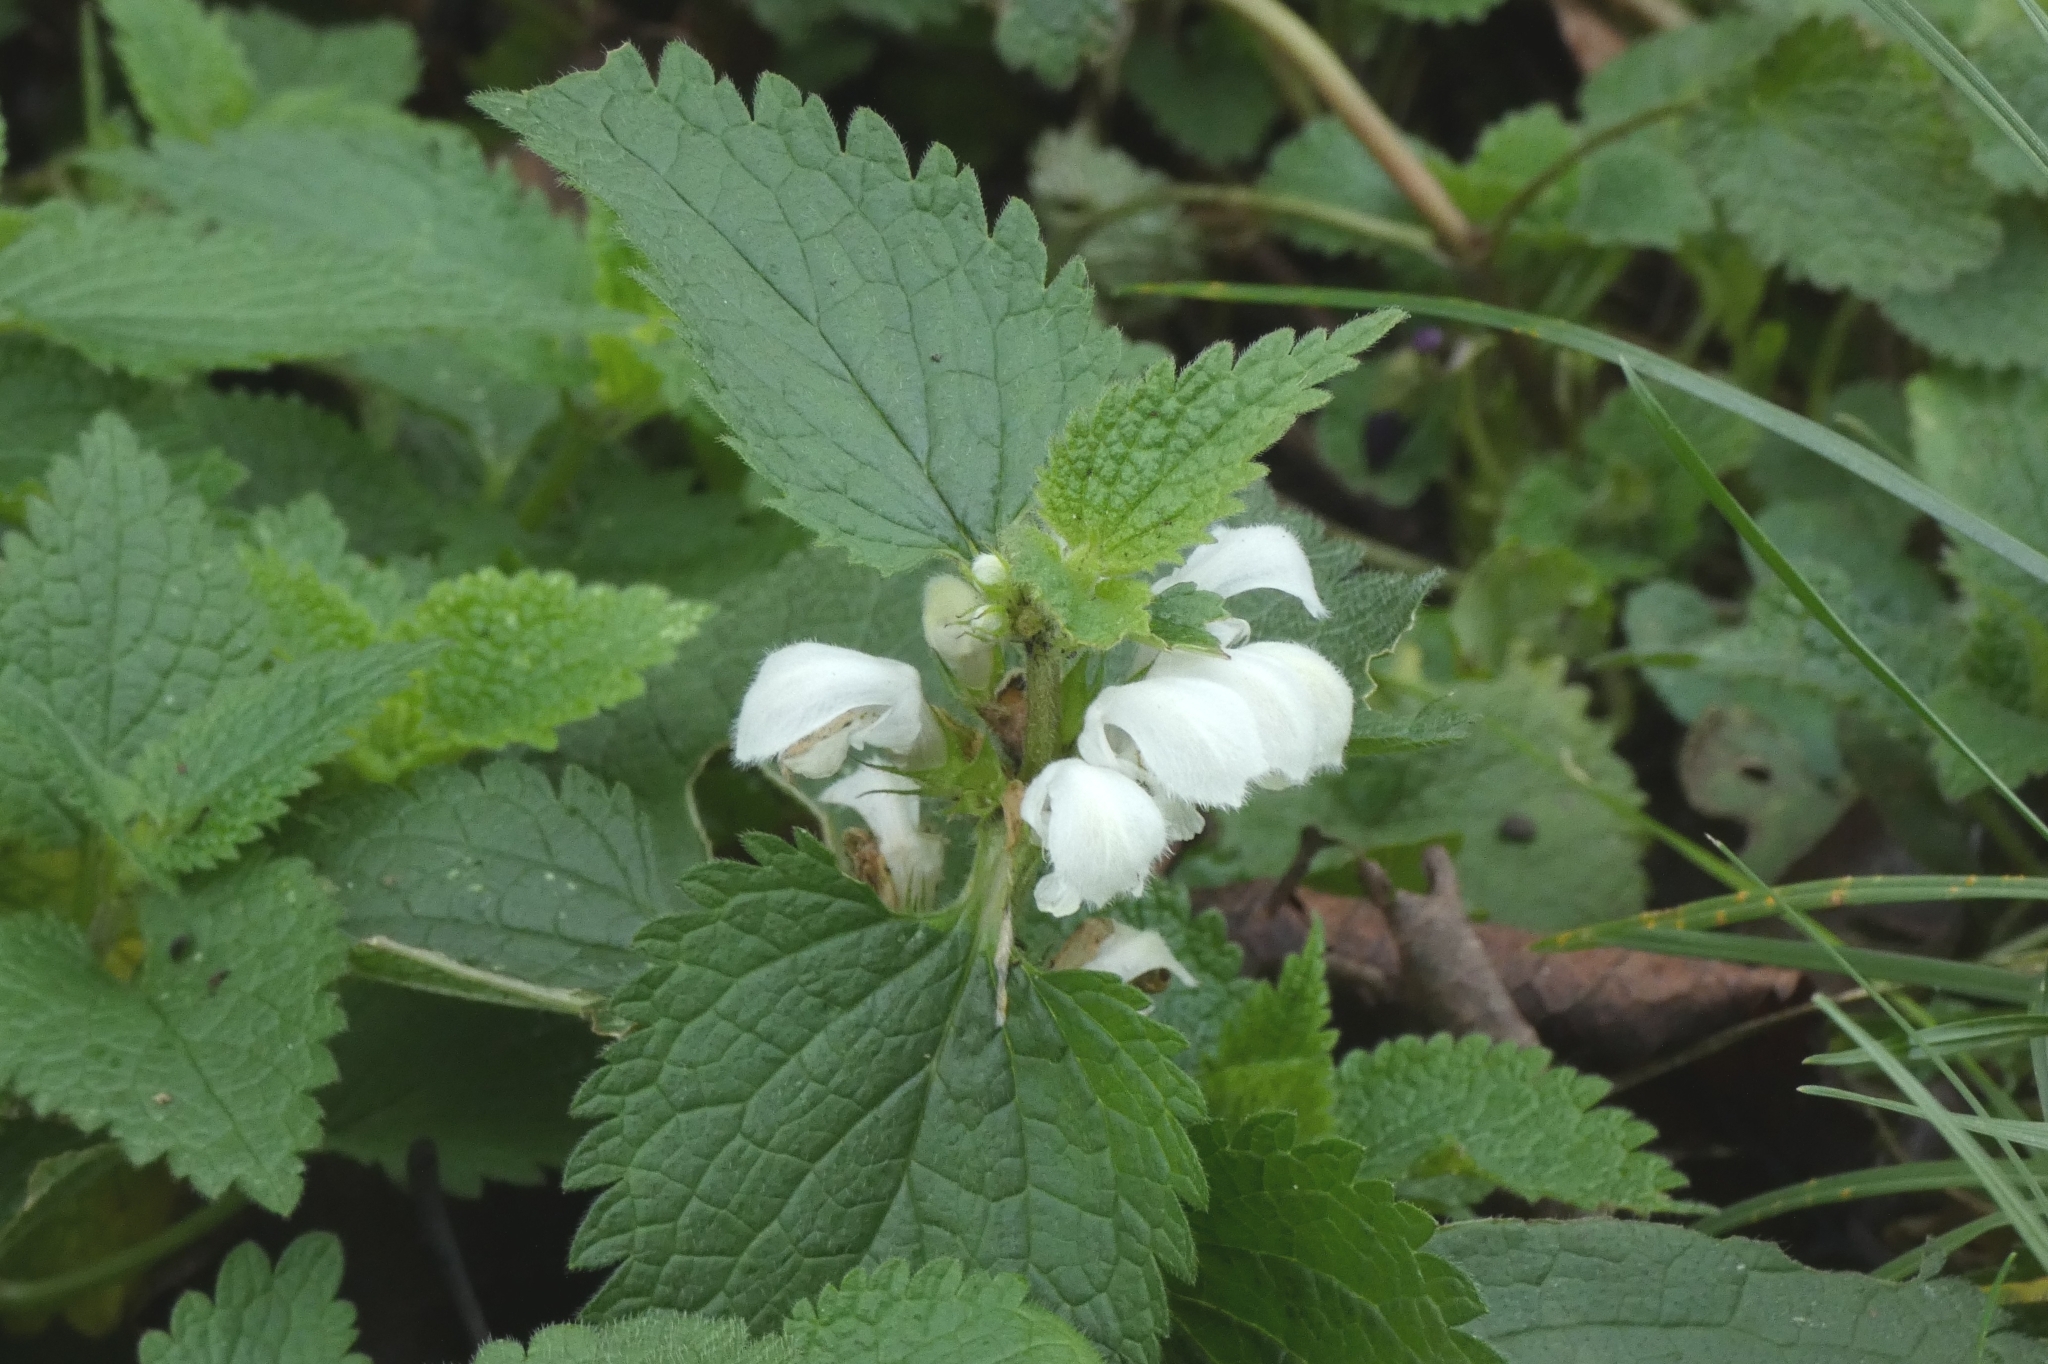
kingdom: Plantae
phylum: Tracheophyta
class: Magnoliopsida
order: Lamiales
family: Lamiaceae
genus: Lamium
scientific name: Lamium album
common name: White dead-nettle
